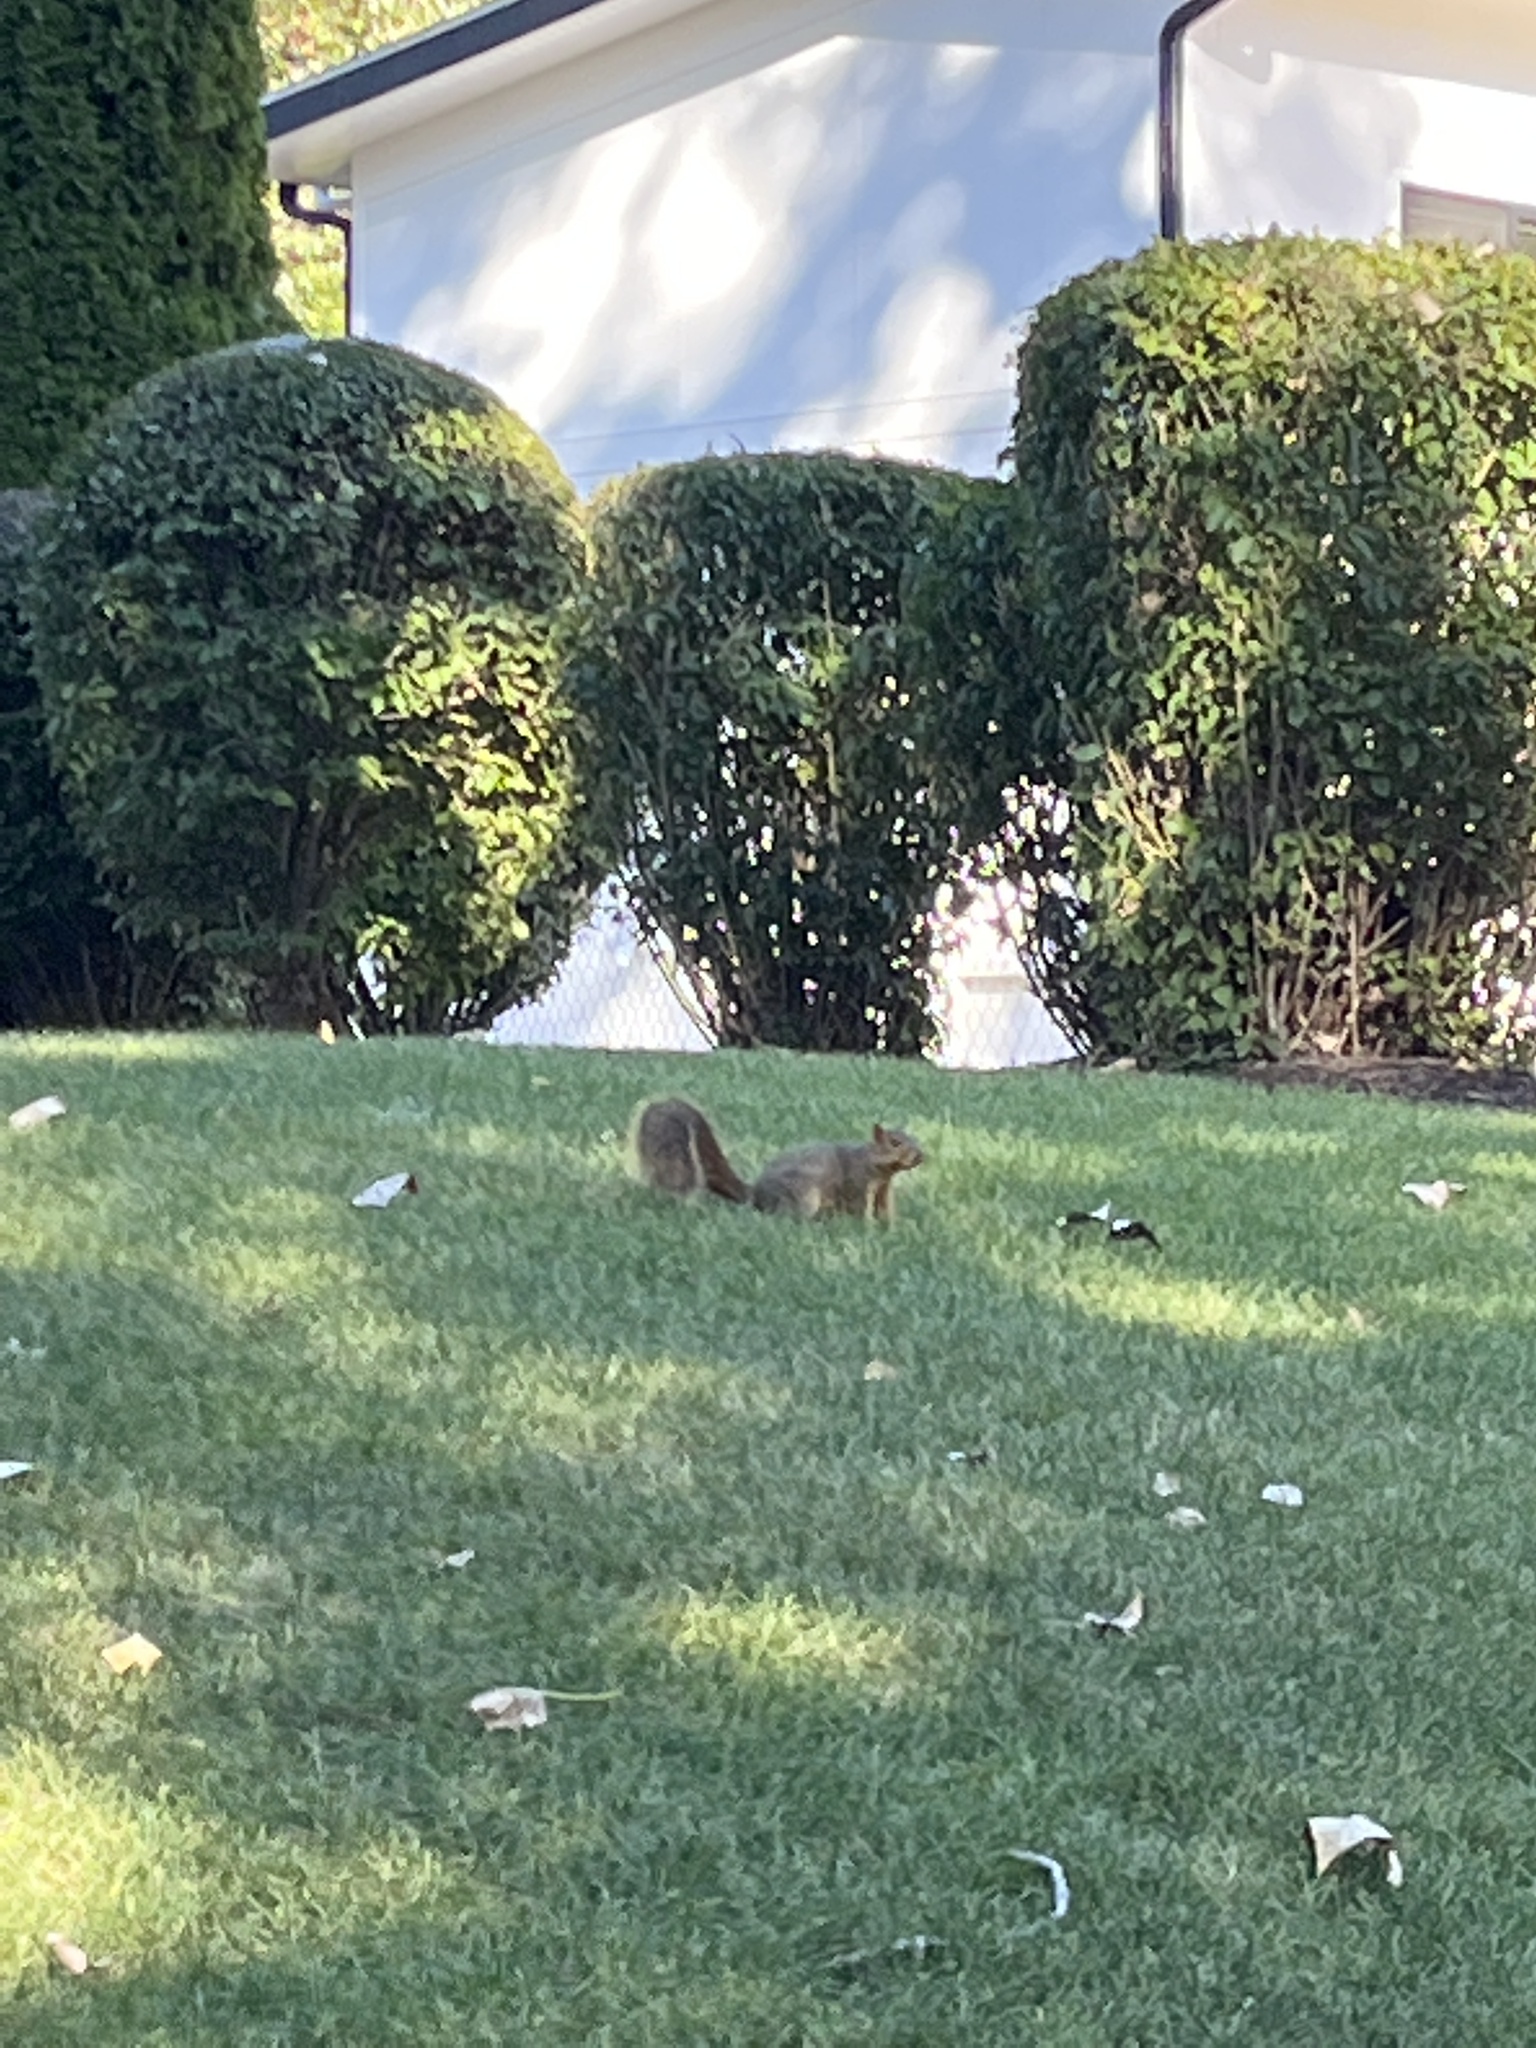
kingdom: Animalia
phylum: Chordata
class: Mammalia
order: Rodentia
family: Sciuridae
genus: Sciurus
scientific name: Sciurus niger
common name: Fox squirrel
